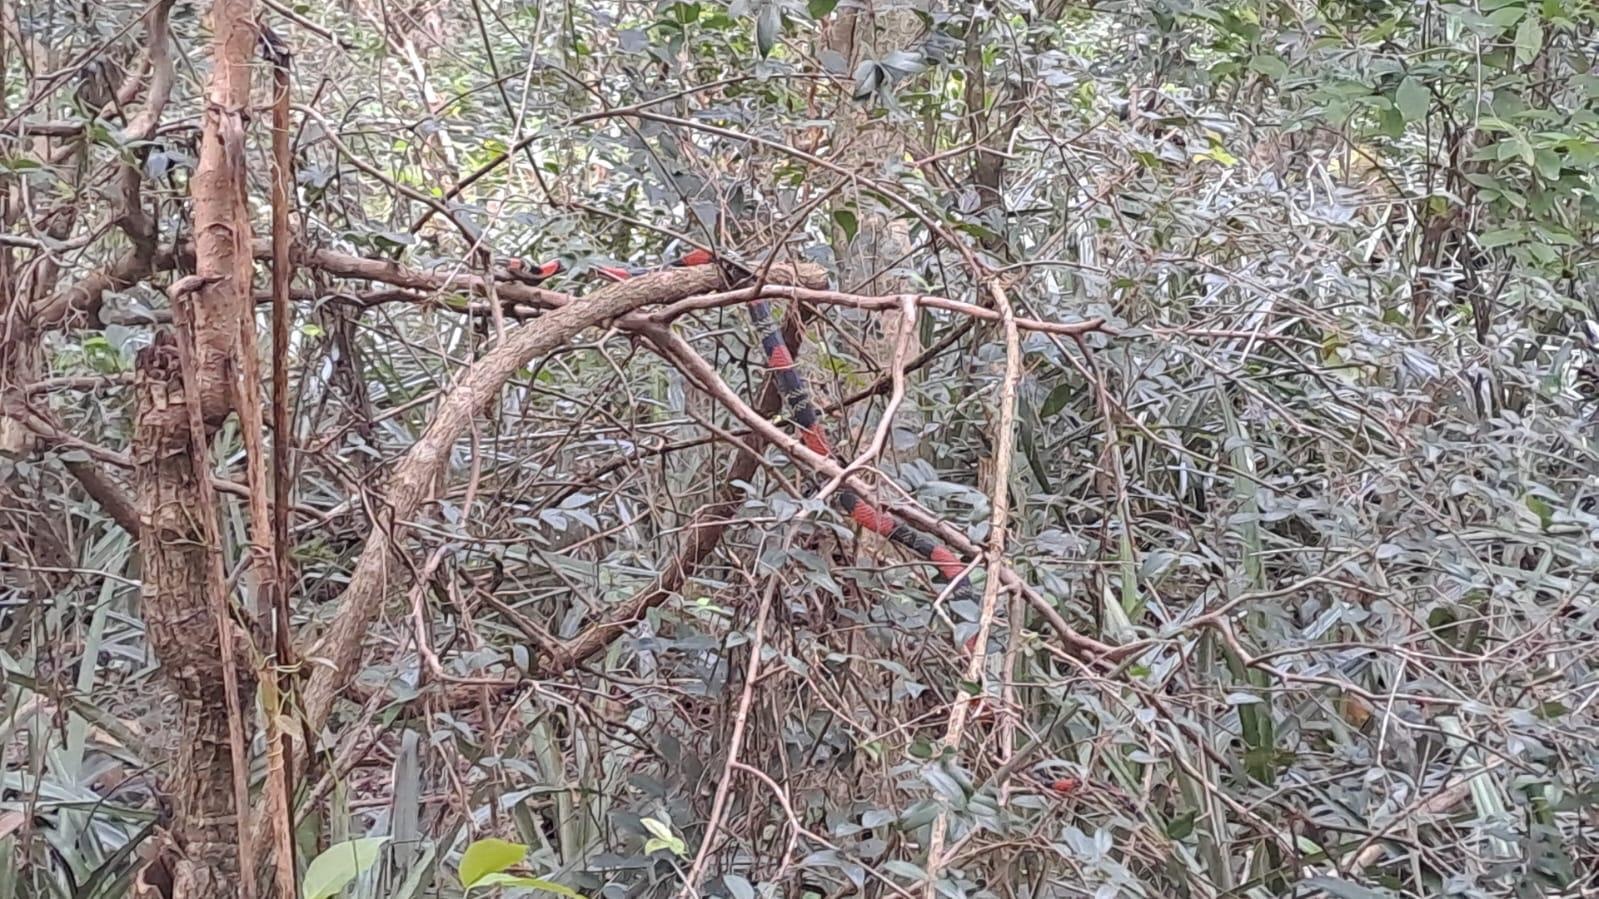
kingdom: Animalia
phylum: Chordata
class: Squamata
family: Elapidae
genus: Micrurus
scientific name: Micrurus altirostris
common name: Uruguayan coral snake
